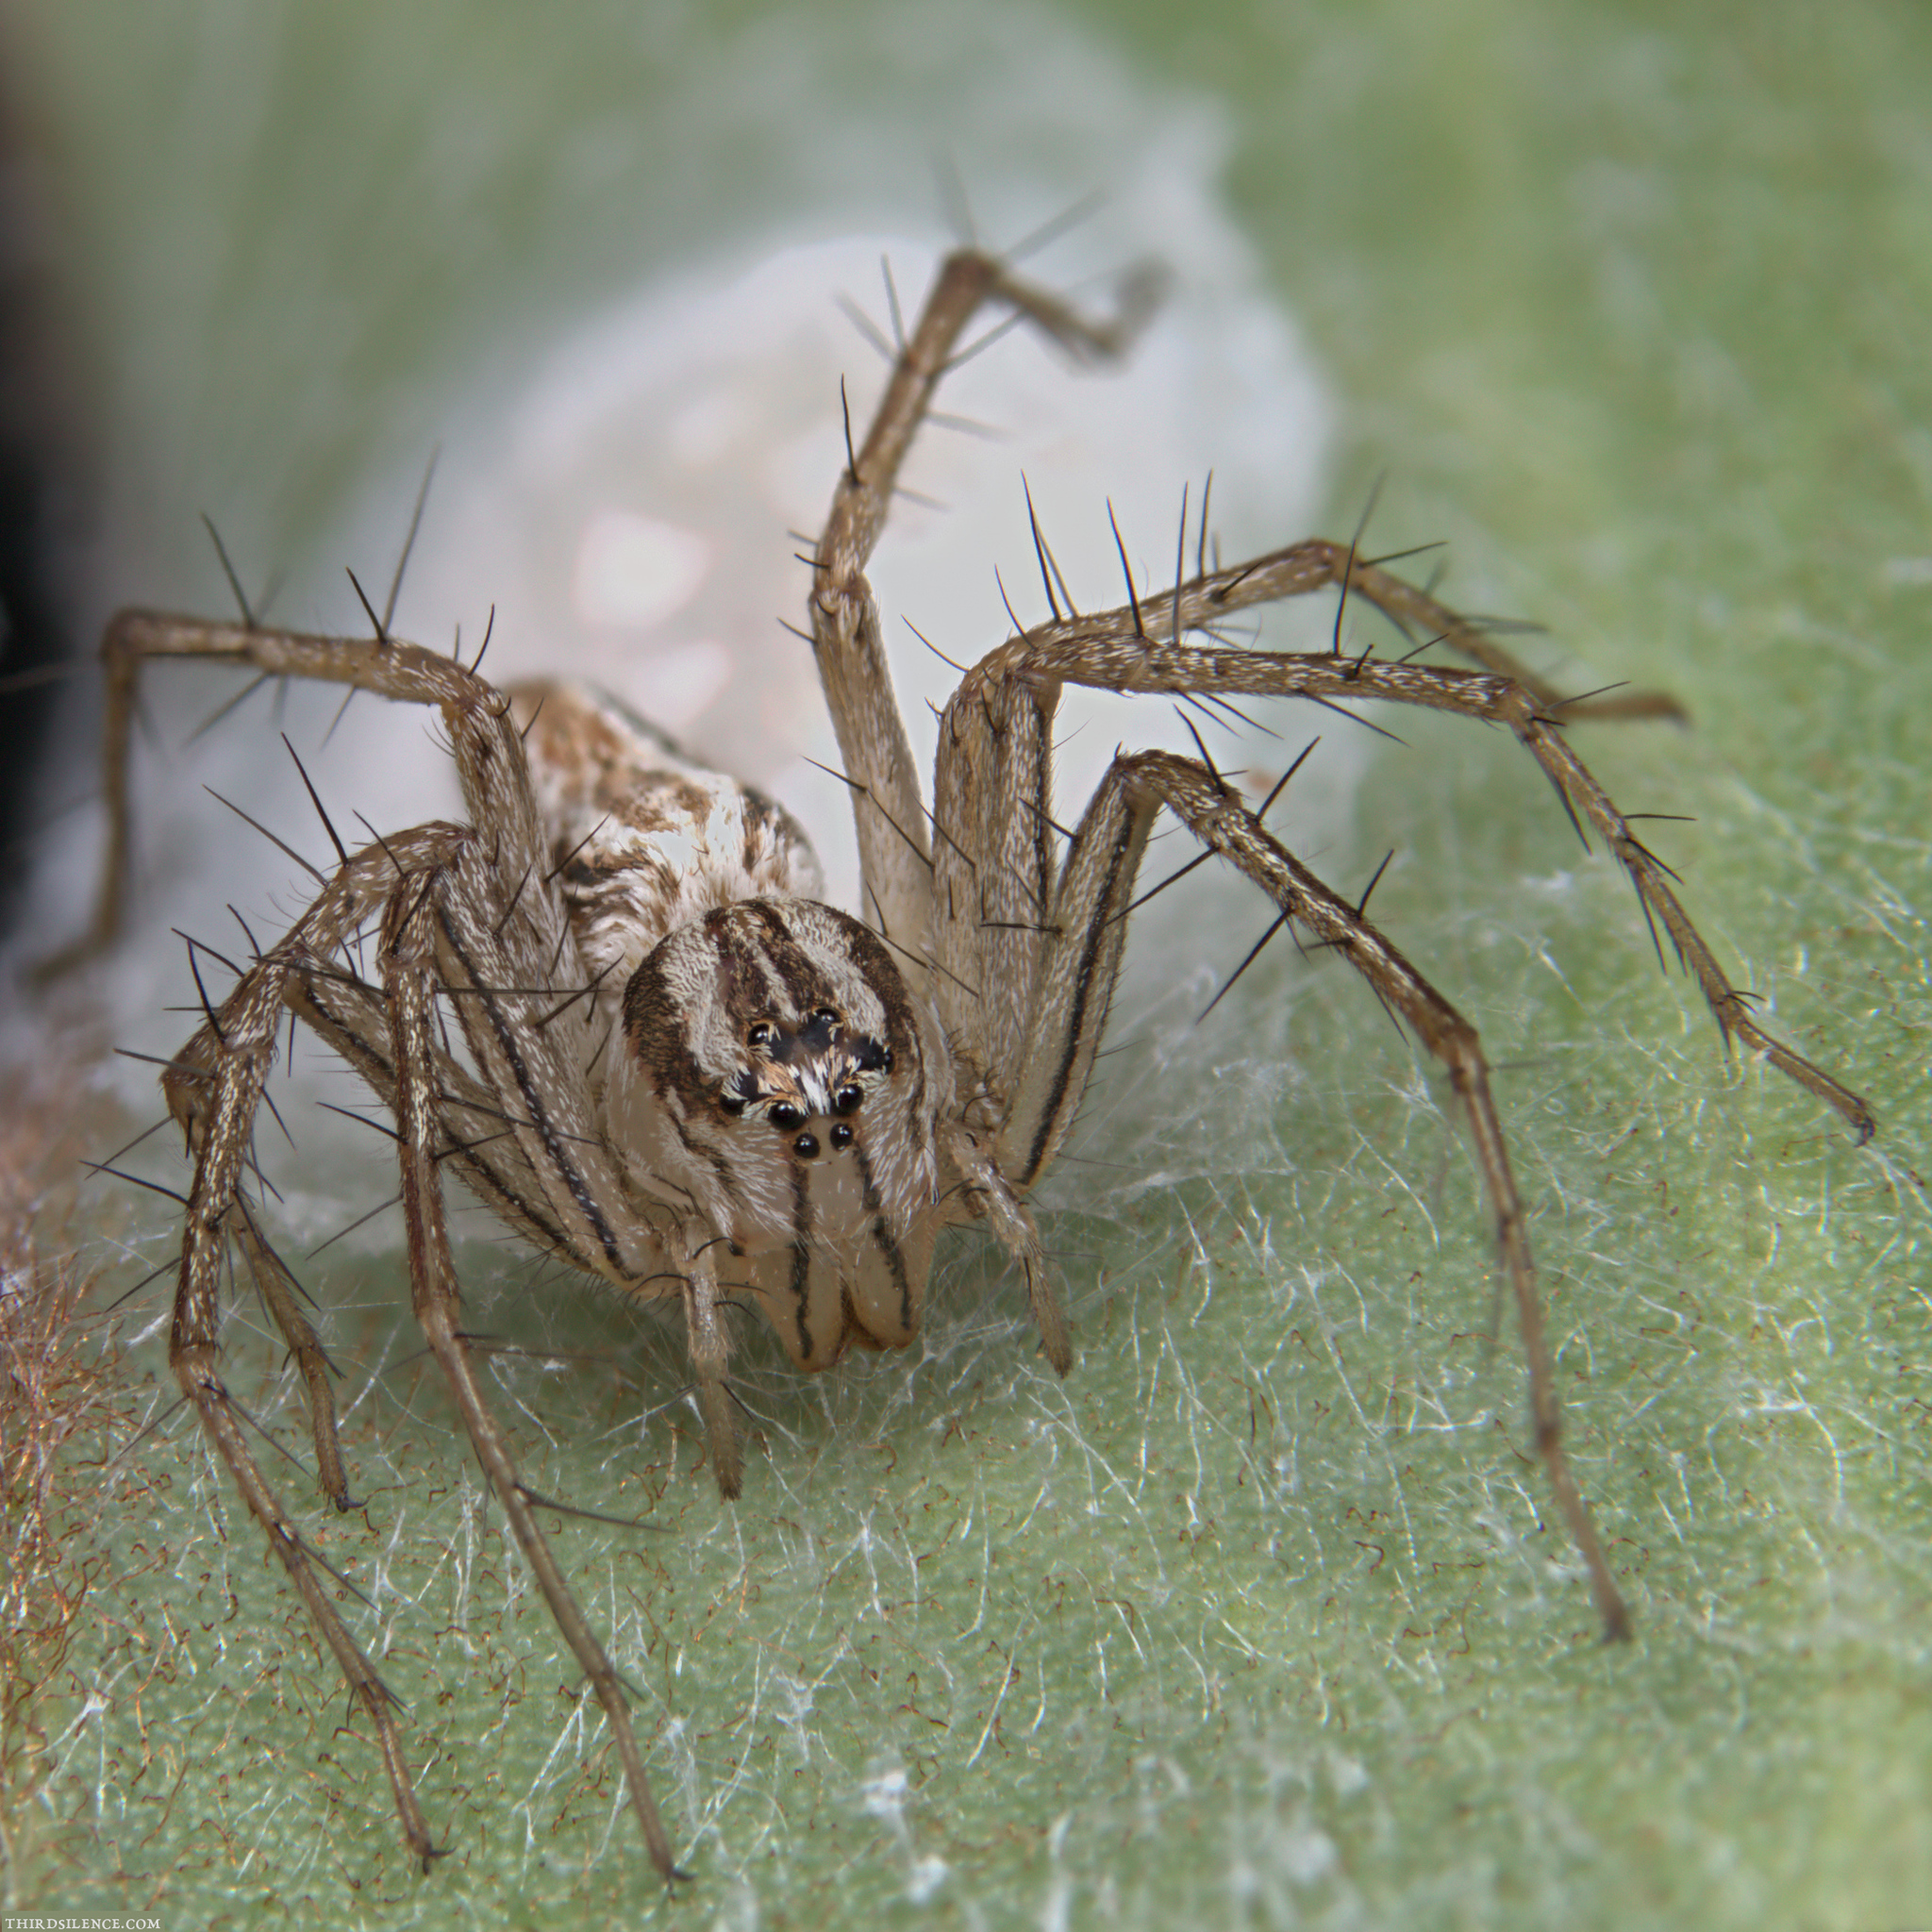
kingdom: Animalia
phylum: Arthropoda
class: Arachnida
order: Araneae
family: Oxyopidae
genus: Oxyopes
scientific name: Oxyopes gracilipes
